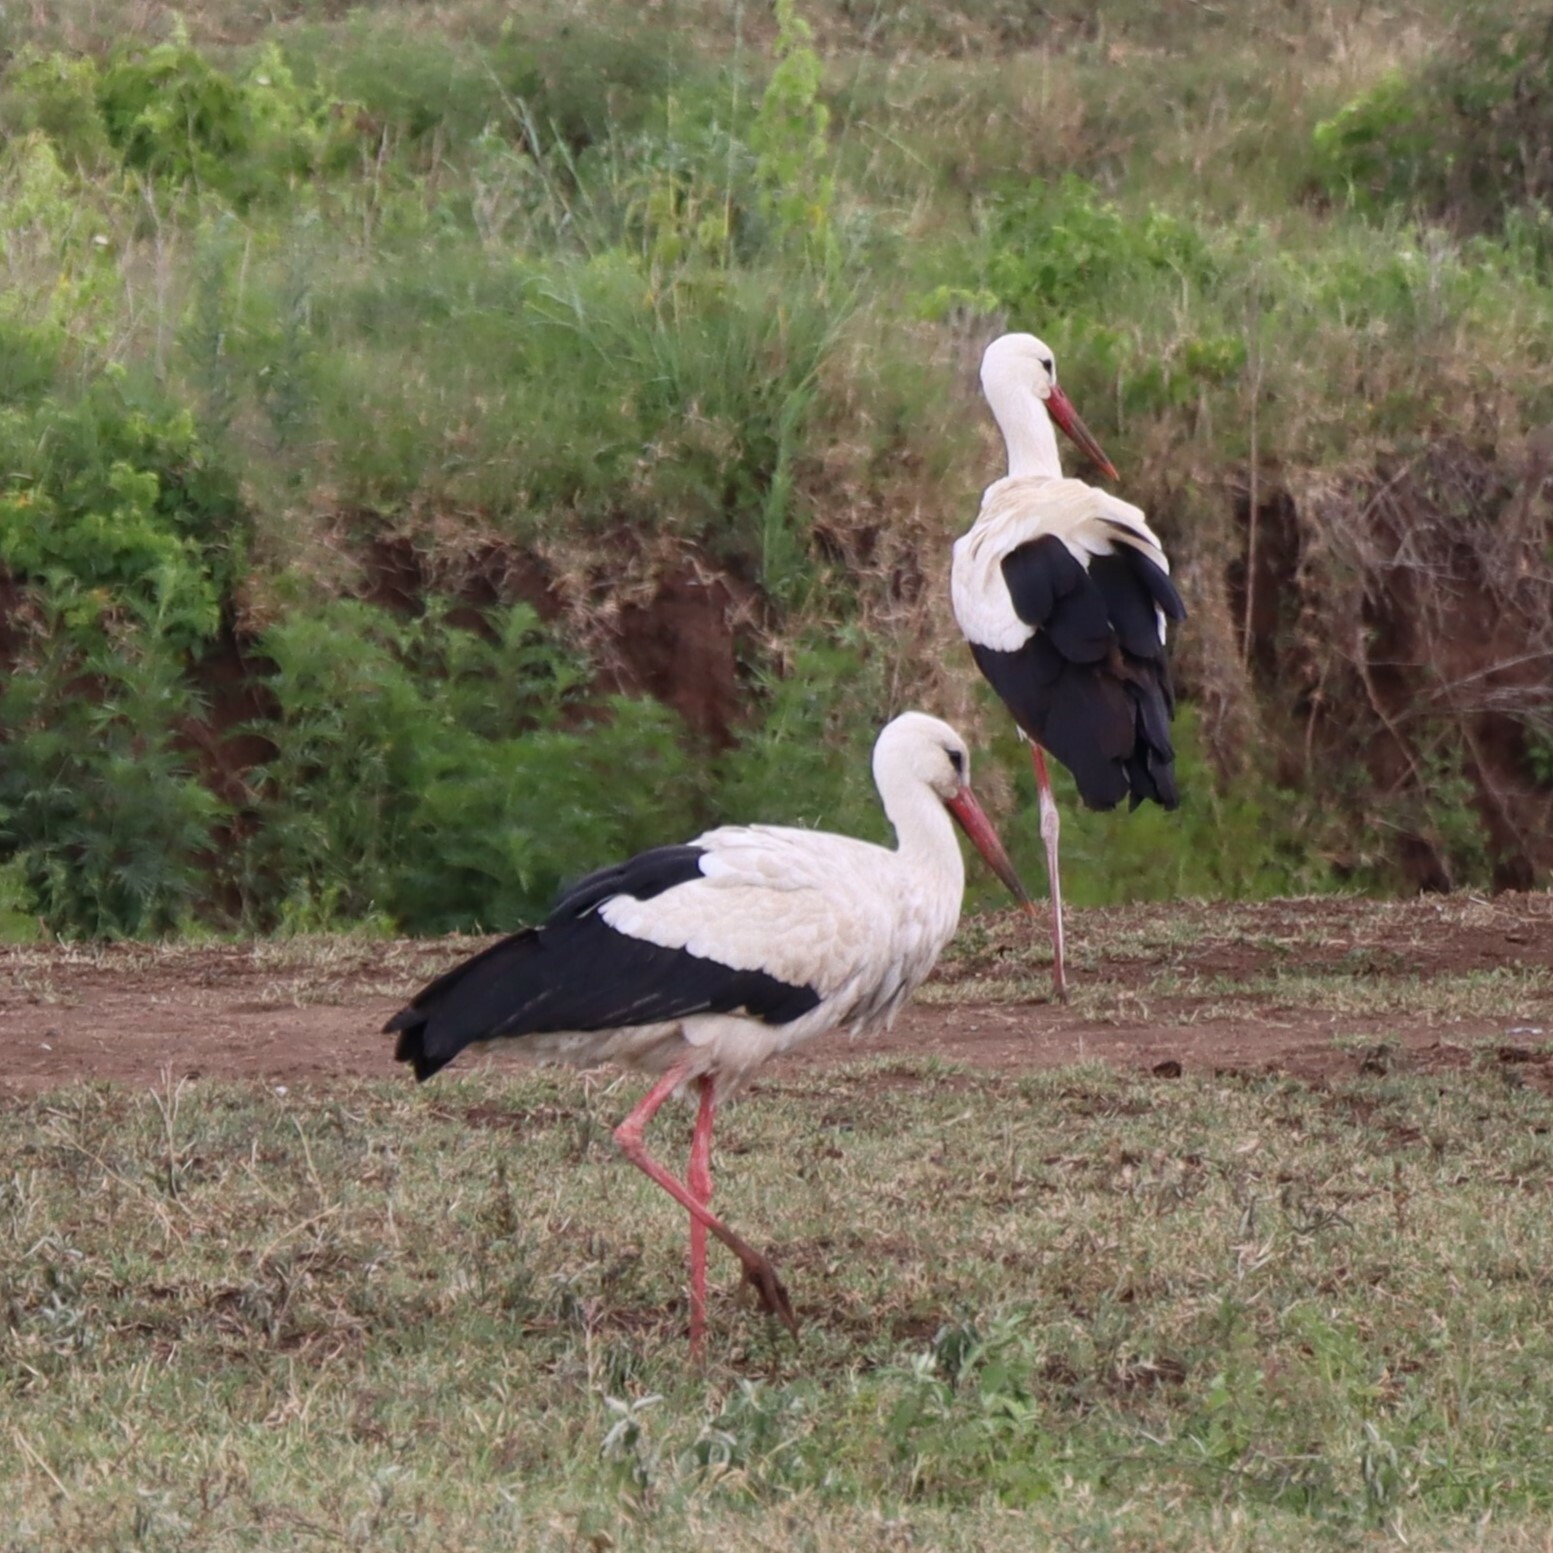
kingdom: Animalia
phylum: Chordata
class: Aves
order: Ciconiiformes
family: Ciconiidae
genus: Ciconia
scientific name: Ciconia ciconia
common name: White stork
